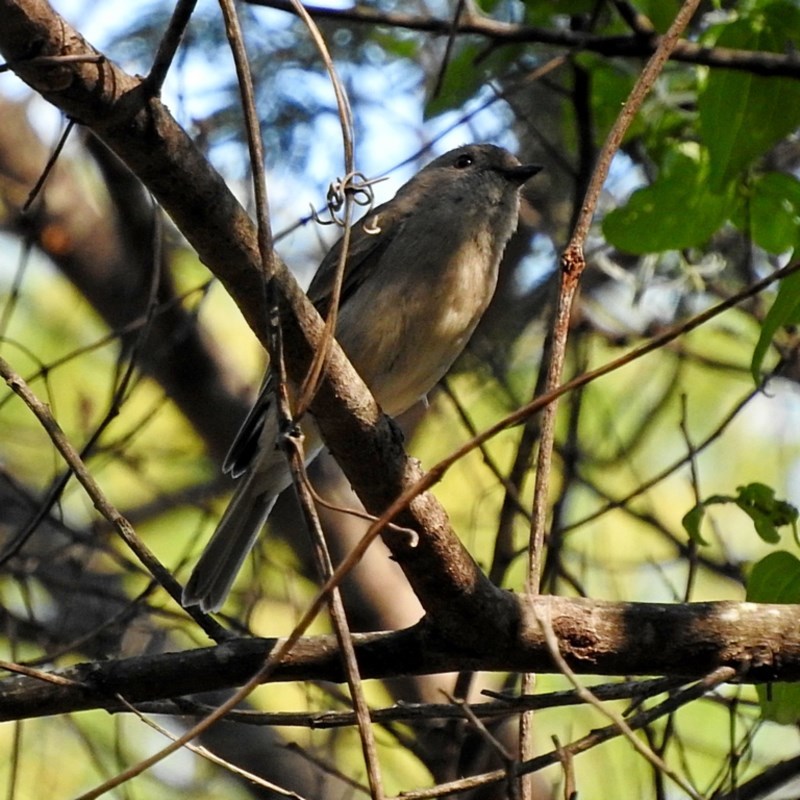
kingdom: Animalia
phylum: Chordata
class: Aves
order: Passeriformes
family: Pachycephalidae
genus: Pachycephala
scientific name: Pachycephala pectoralis
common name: Australian golden whistler
